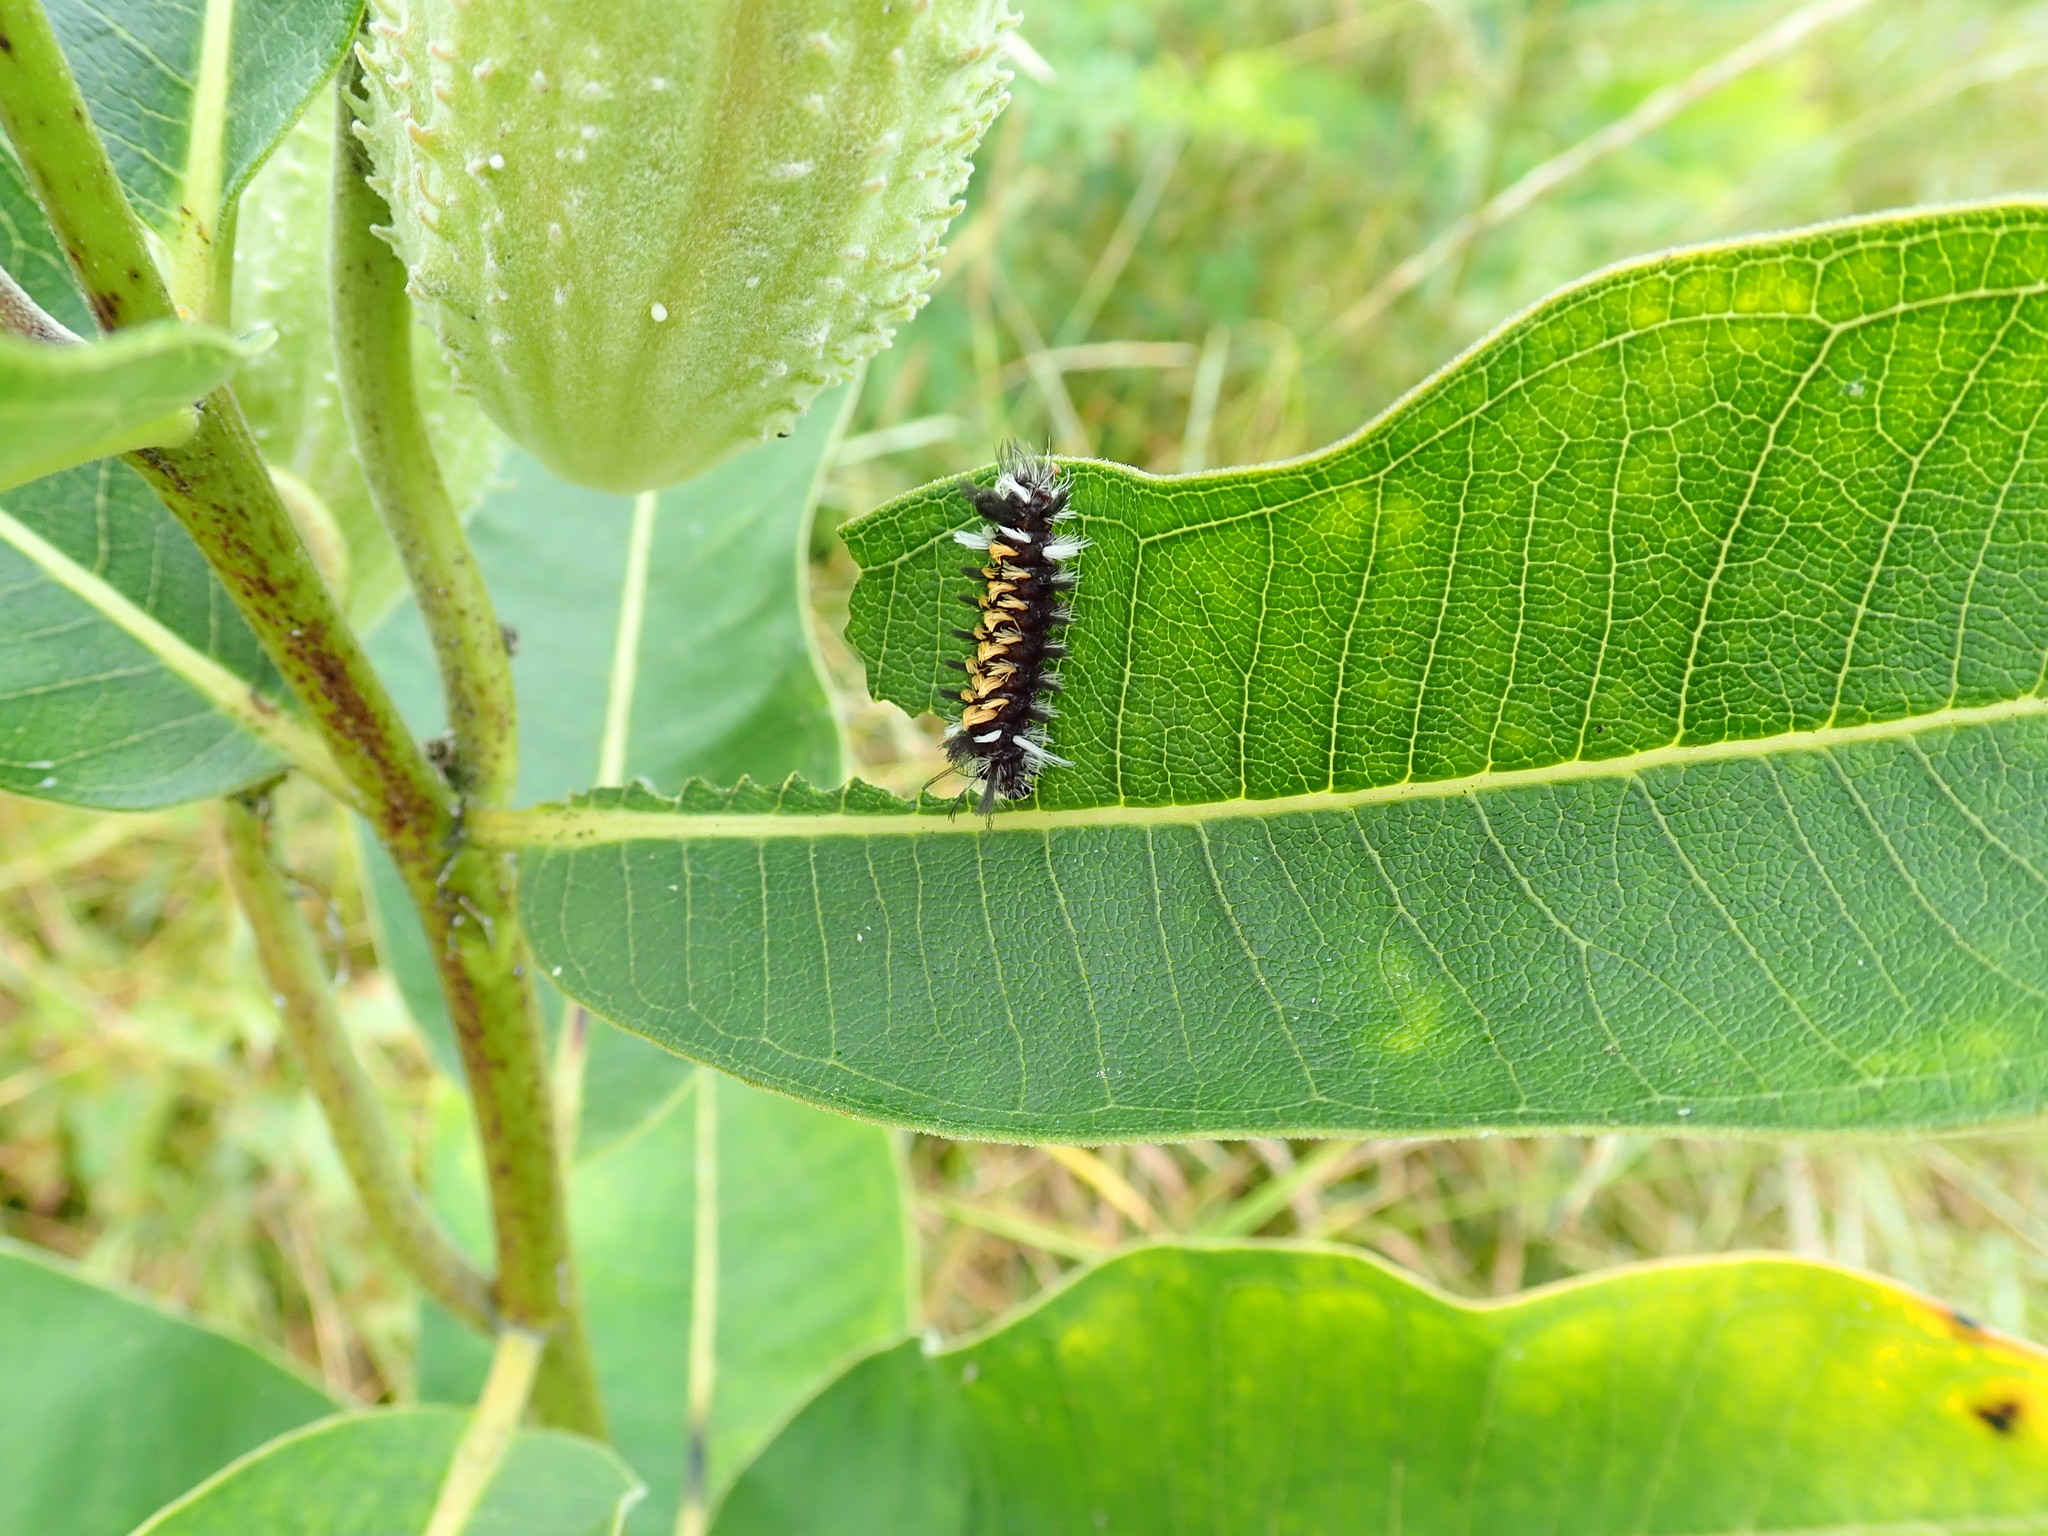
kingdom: Animalia
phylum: Arthropoda
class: Insecta
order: Lepidoptera
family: Erebidae
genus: Euchaetes
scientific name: Euchaetes egle
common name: Milkweed tussock moth
